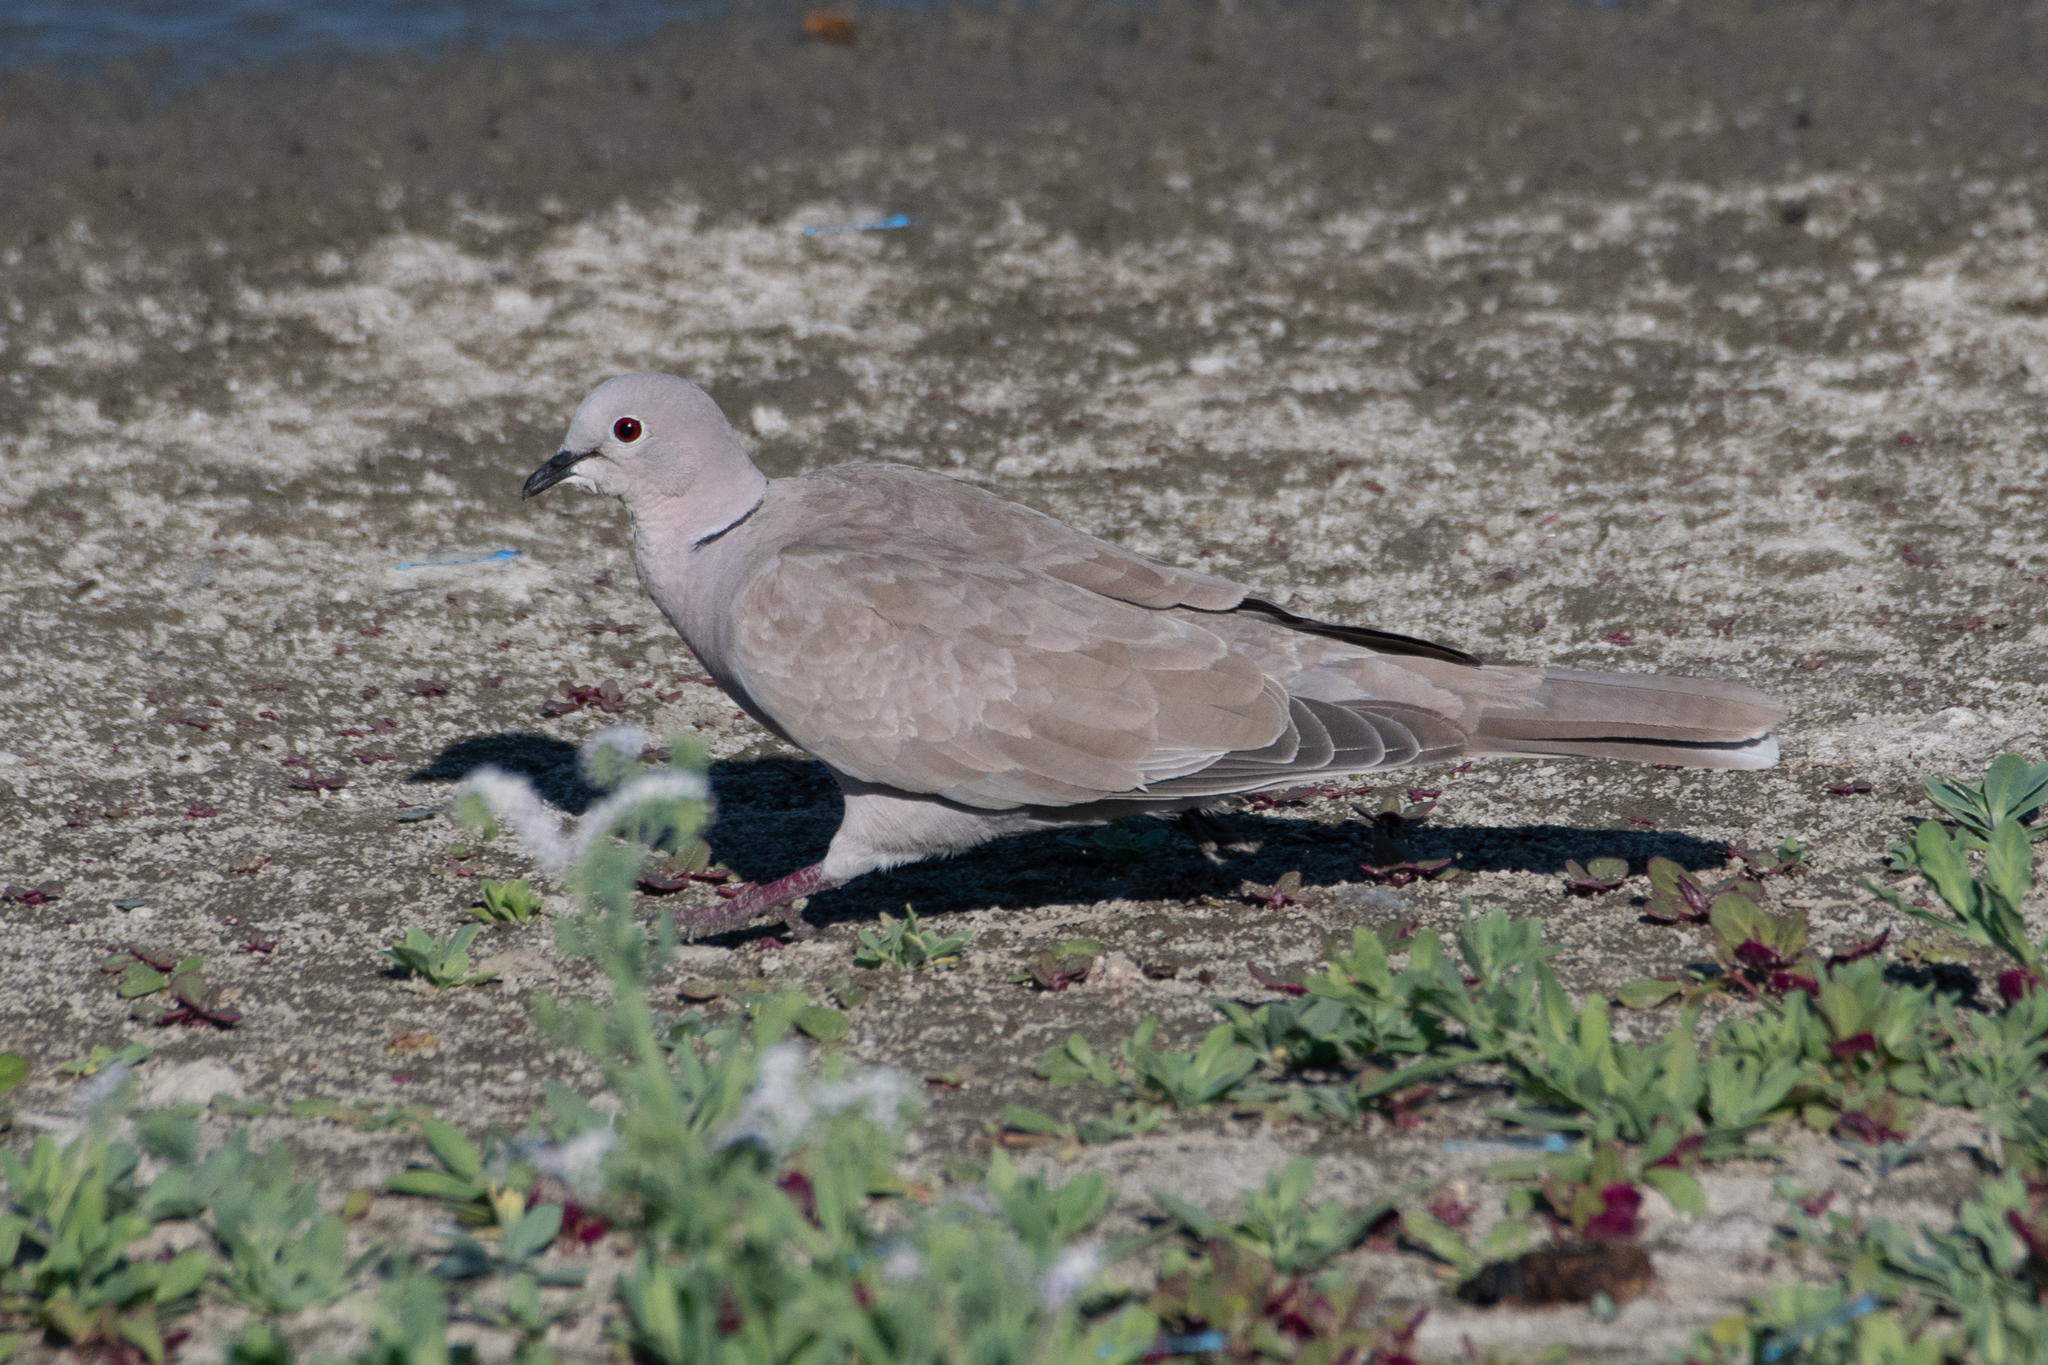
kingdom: Animalia
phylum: Chordata
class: Aves
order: Columbiformes
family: Columbidae
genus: Streptopelia
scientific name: Streptopelia decaocto
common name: Eurasian collared dove
